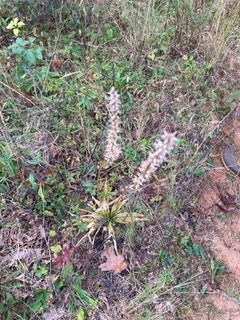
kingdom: Plantae
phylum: Tracheophyta
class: Liliopsida
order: Dioscoreales
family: Nartheciaceae
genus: Aletris
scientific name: Aletris farinosa
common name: Colicroot
